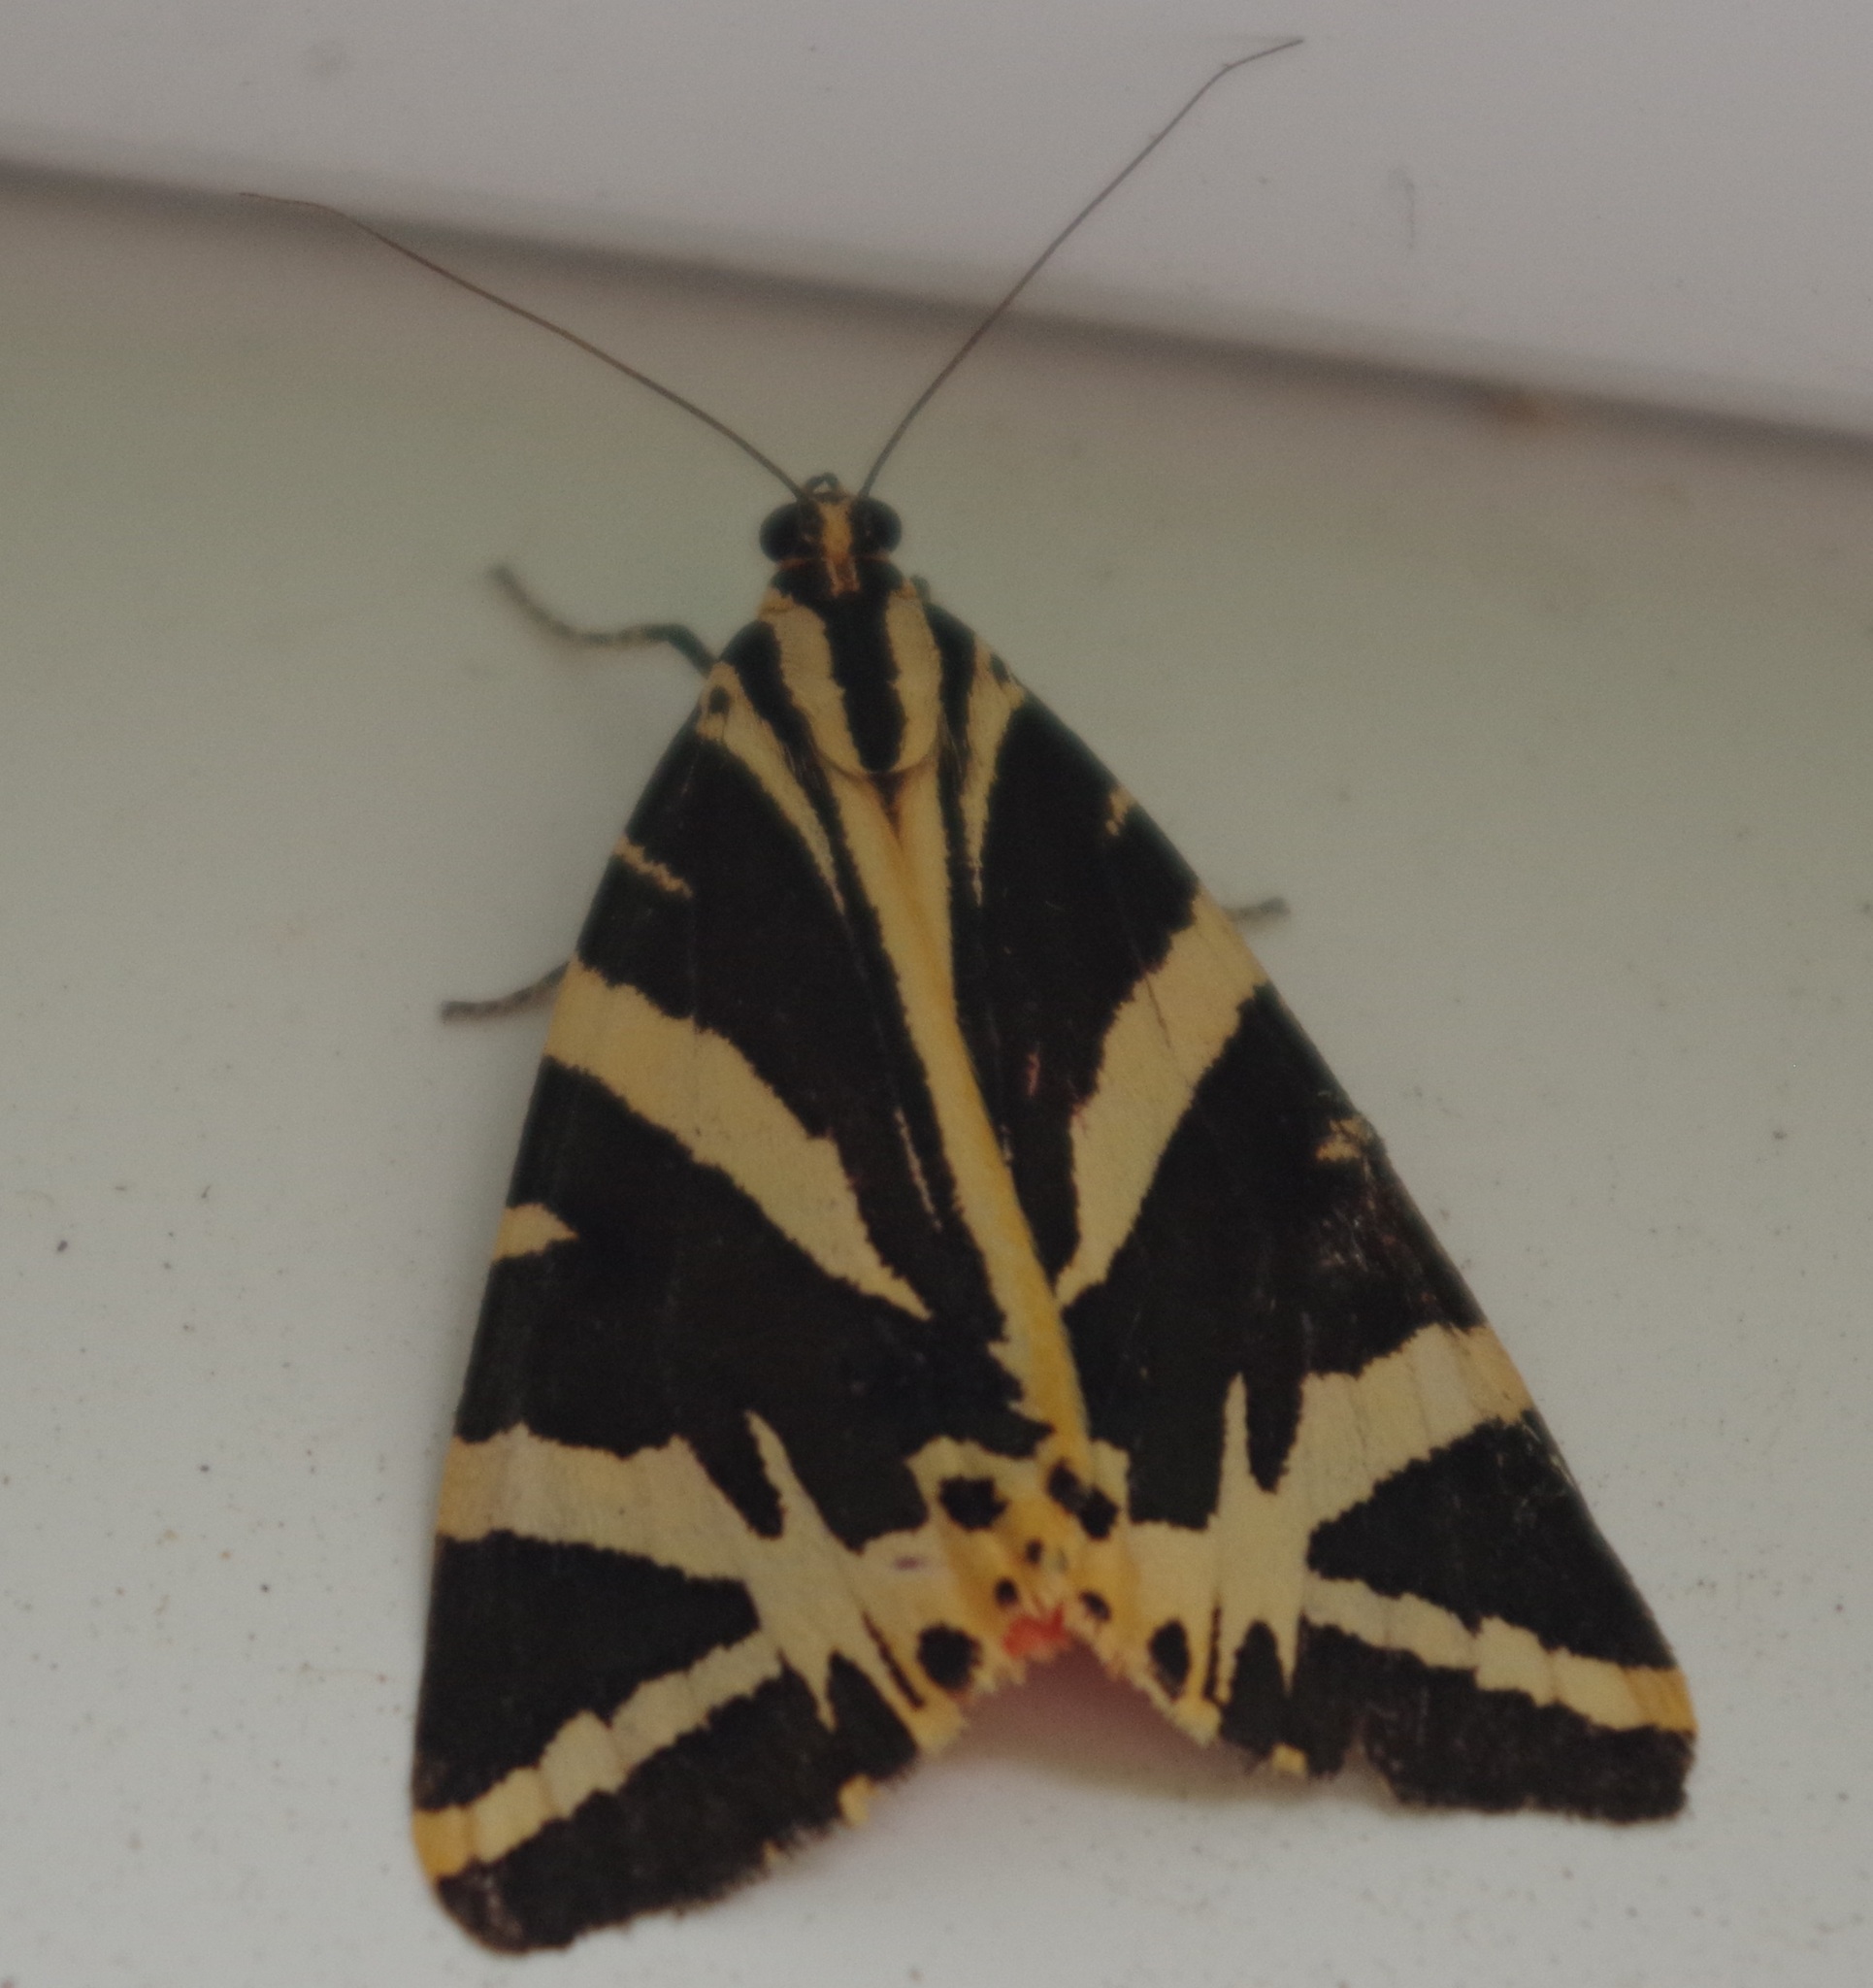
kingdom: Animalia
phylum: Arthropoda
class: Insecta
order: Lepidoptera
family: Erebidae
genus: Euplagia
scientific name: Euplagia quadripunctaria
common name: Jersey tiger
